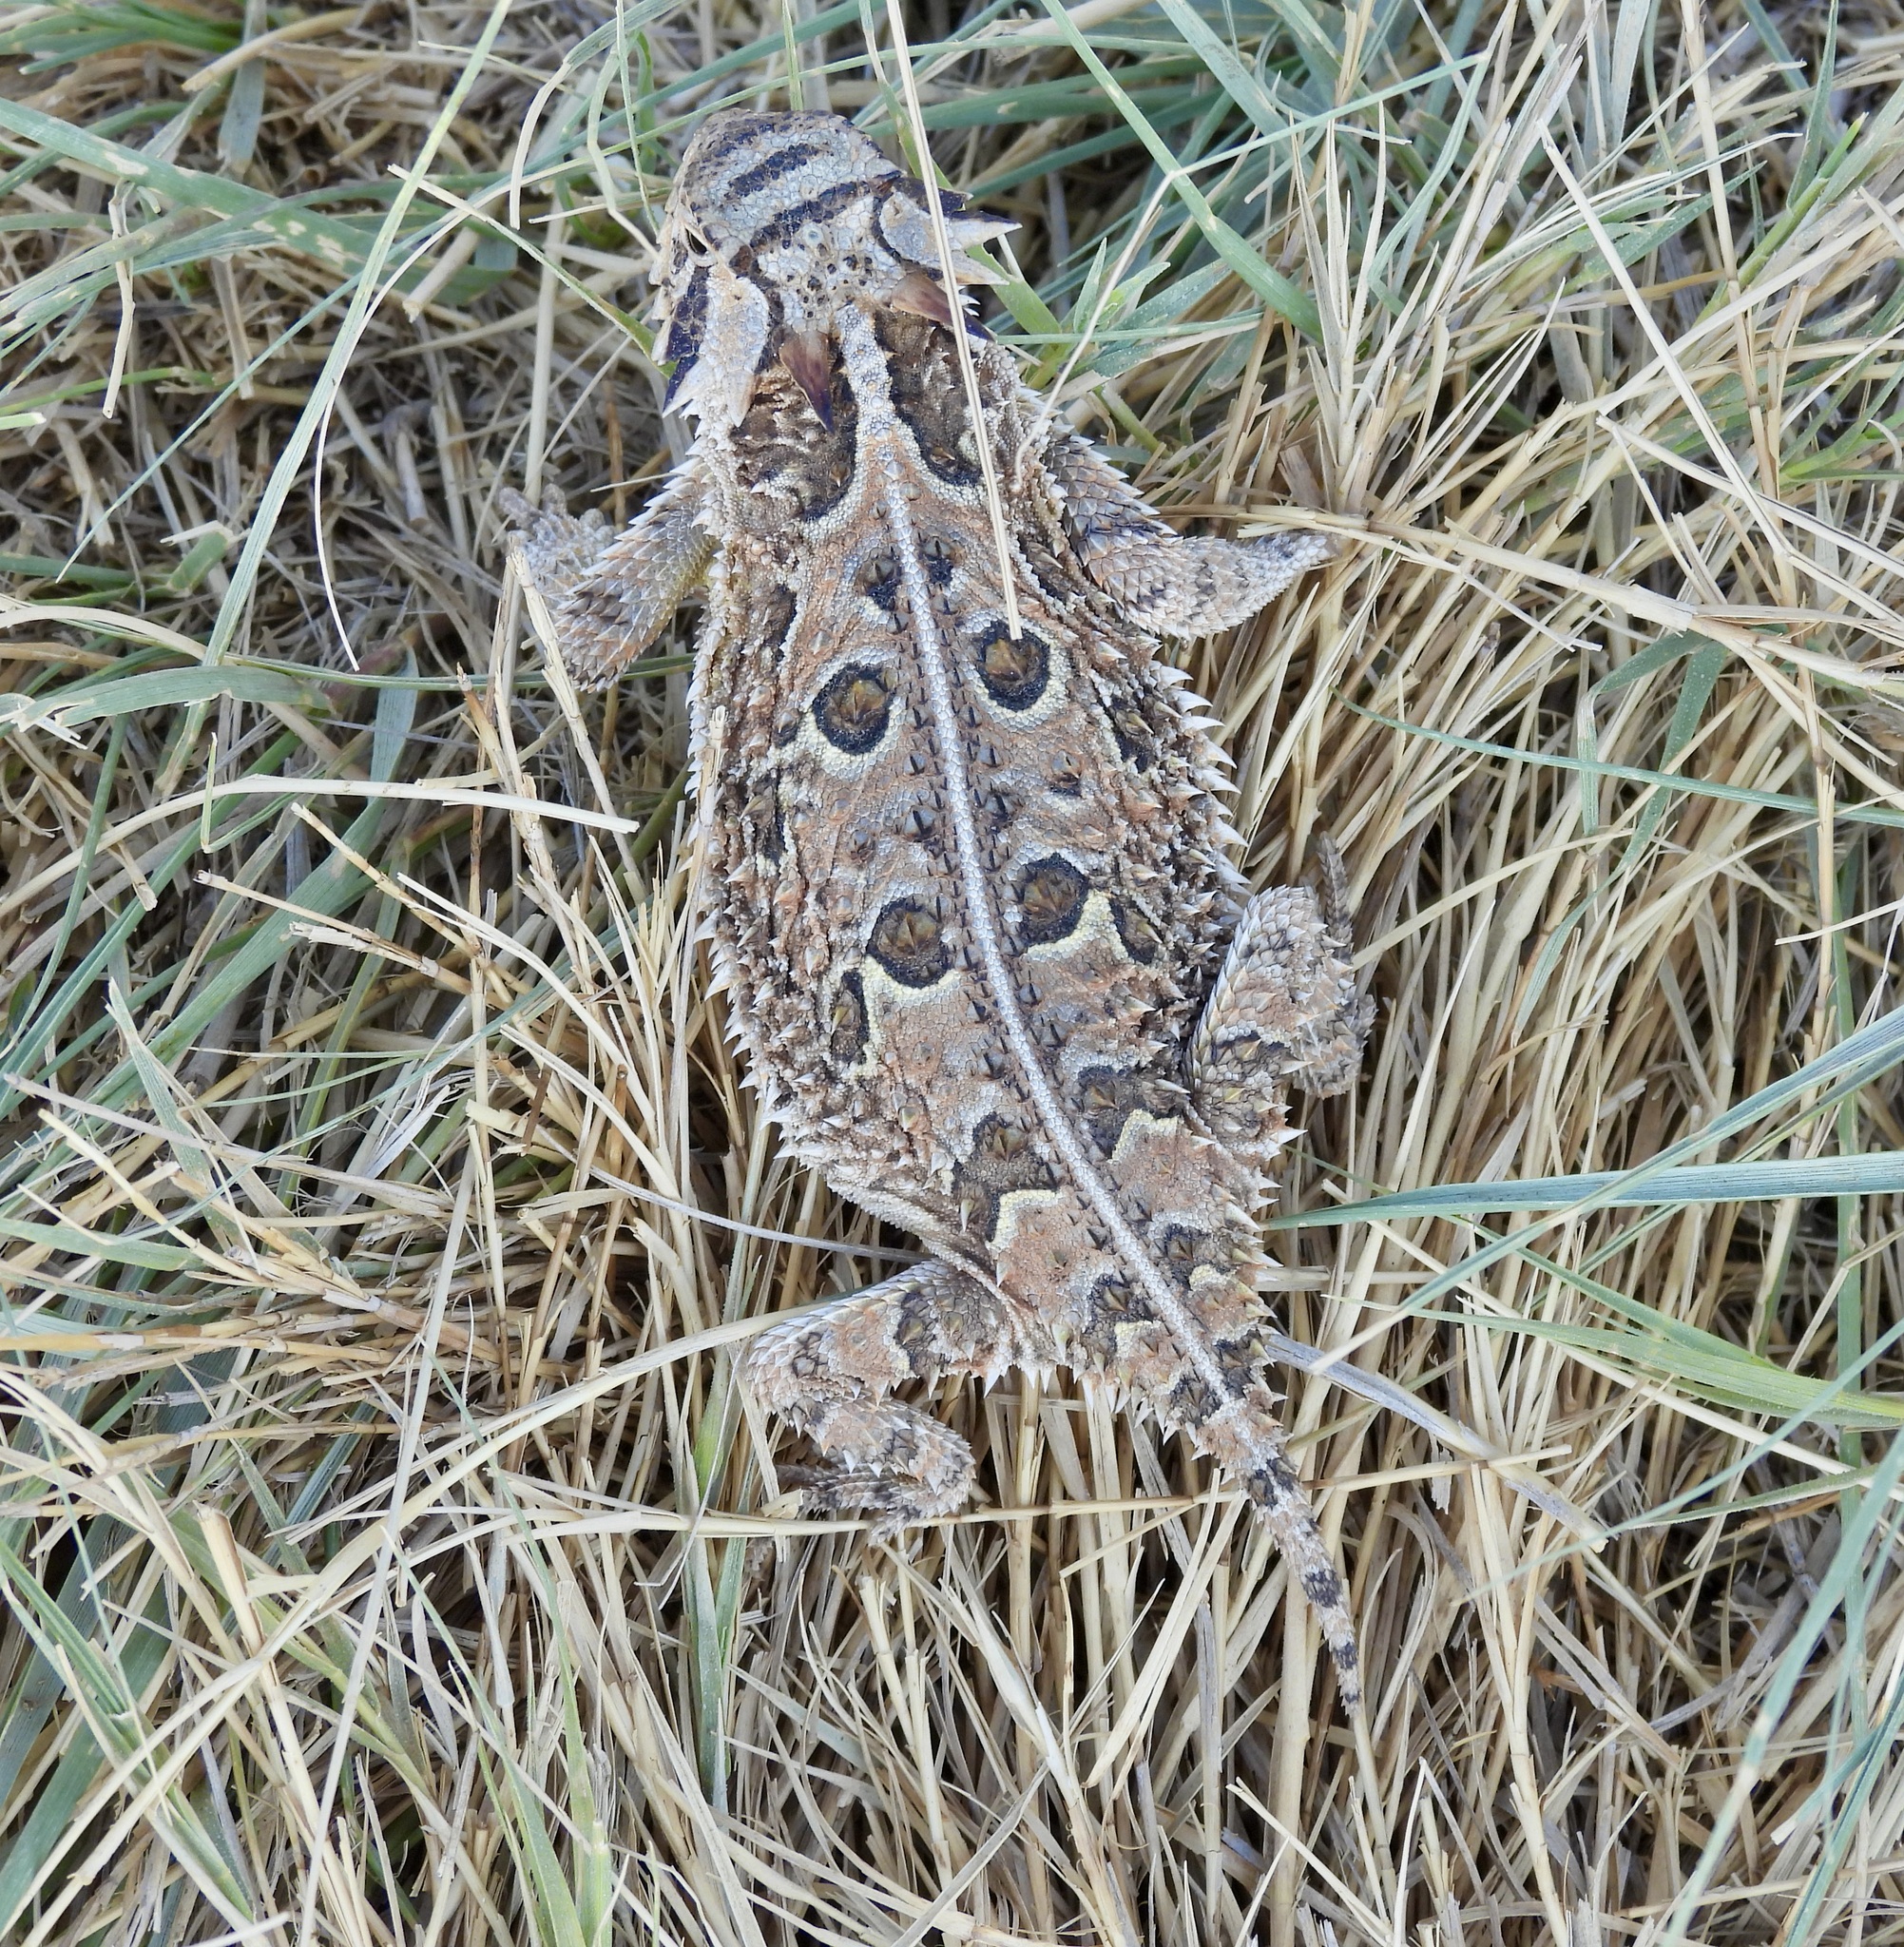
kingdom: Animalia
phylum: Chordata
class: Squamata
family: Phrynosomatidae
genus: Phrynosoma
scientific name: Phrynosoma cornutum
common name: Texas horned lizard
